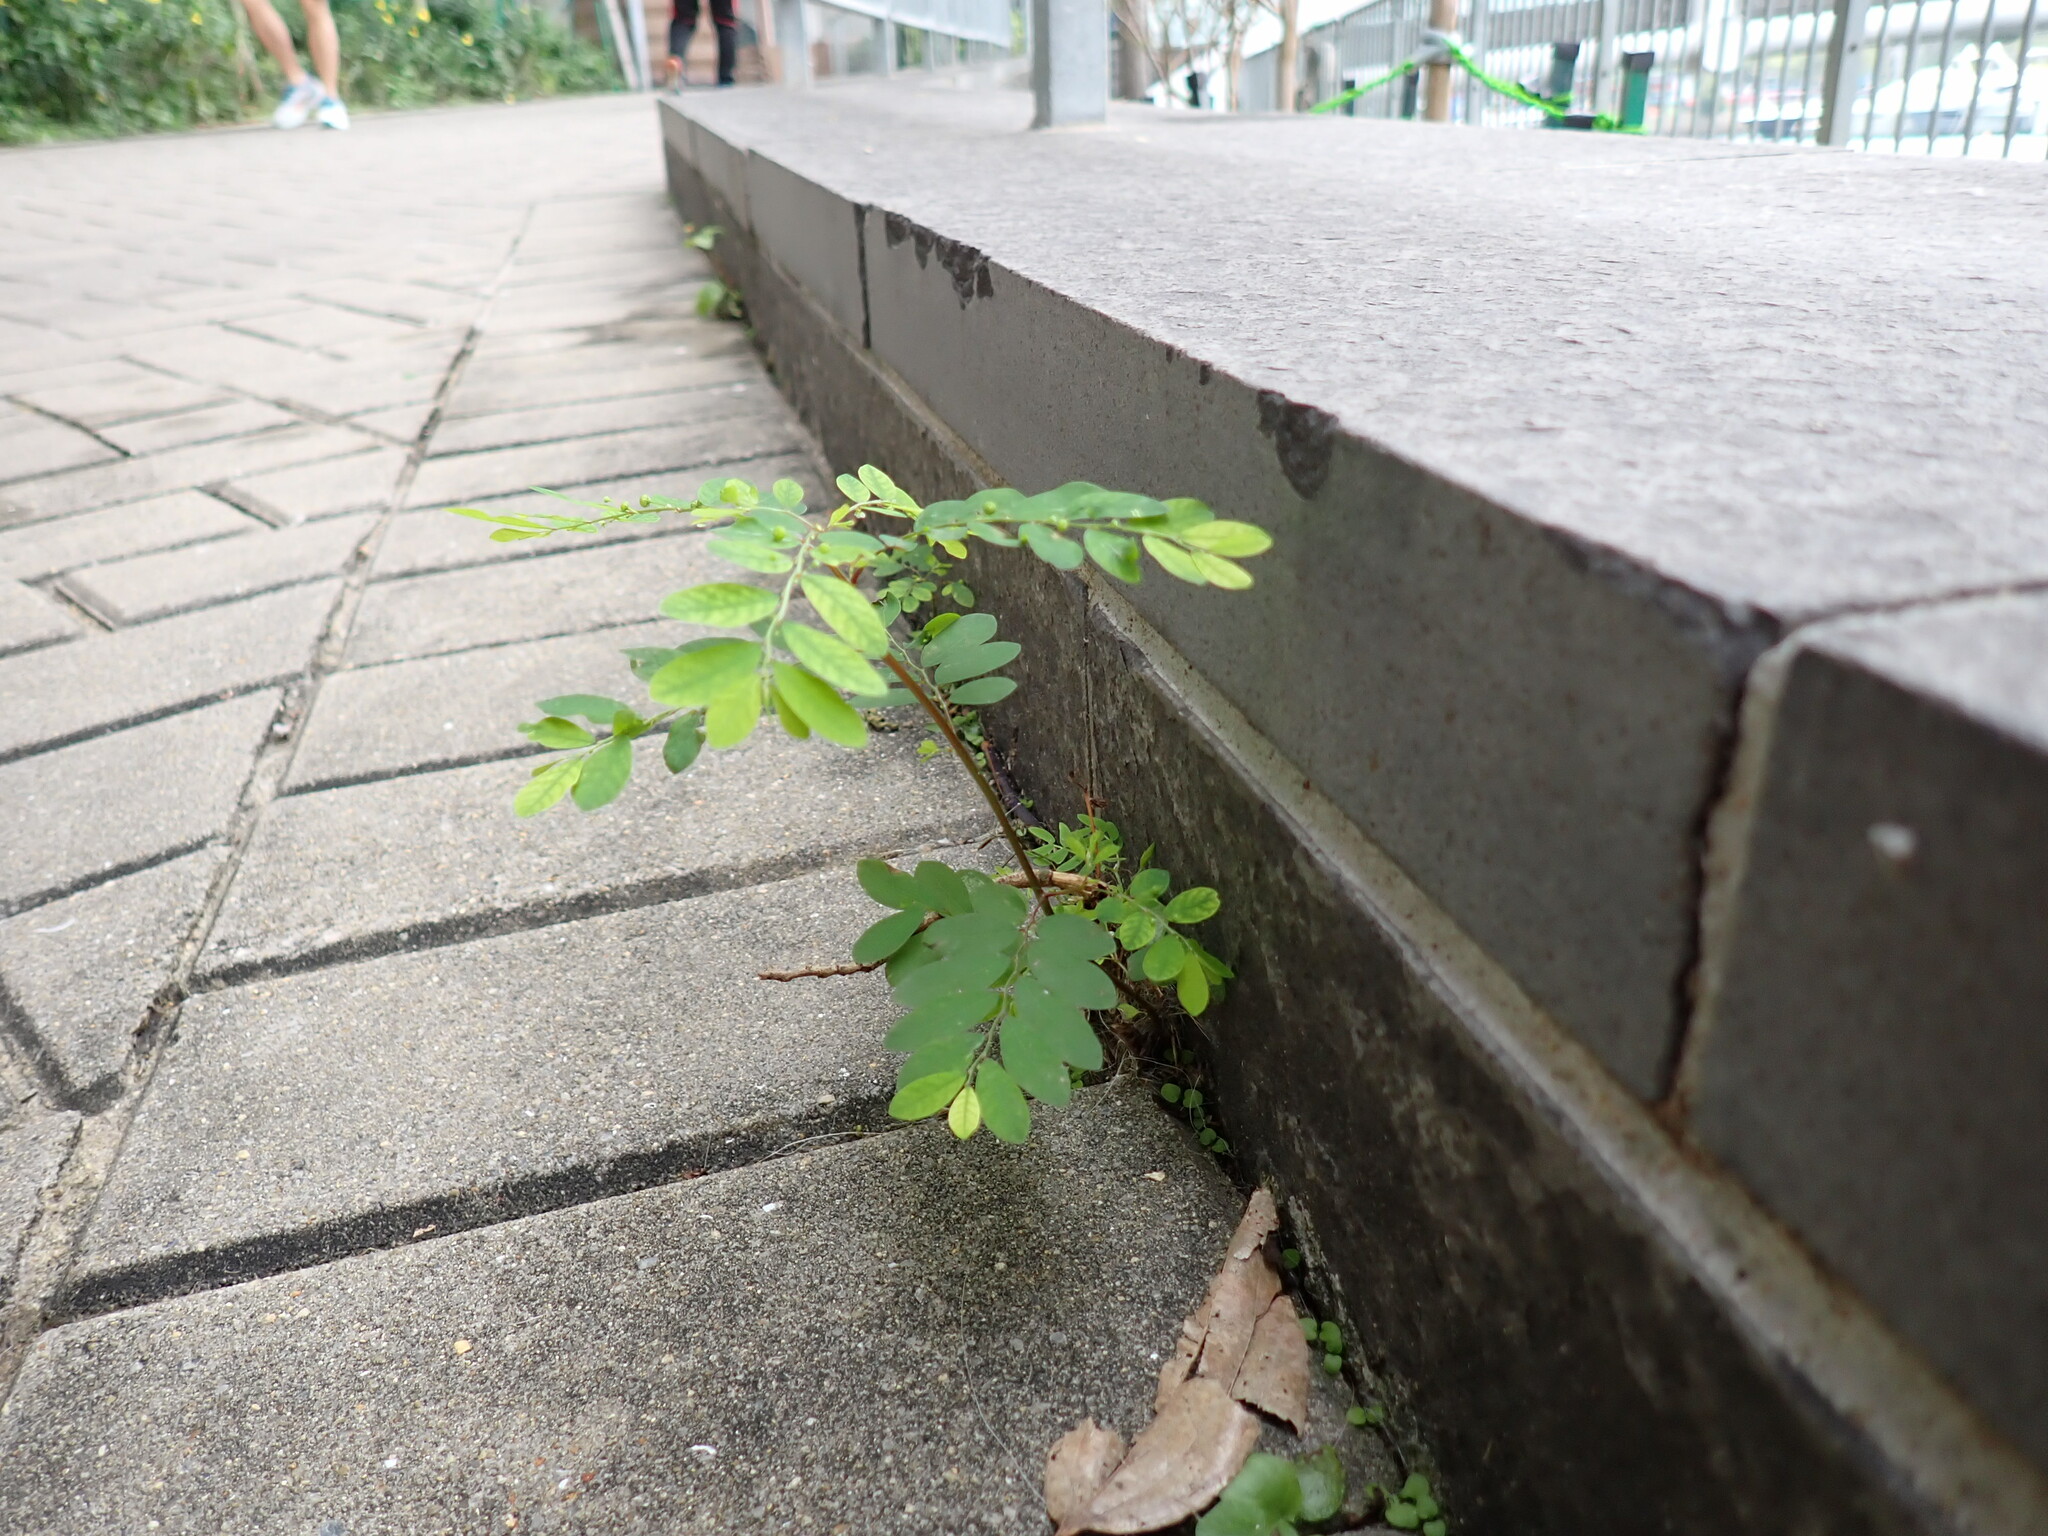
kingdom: Plantae
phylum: Tracheophyta
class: Magnoliopsida
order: Malpighiales
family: Phyllanthaceae
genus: Phyllanthus
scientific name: Phyllanthus tenellus
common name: Mascarene island leaf-flower
